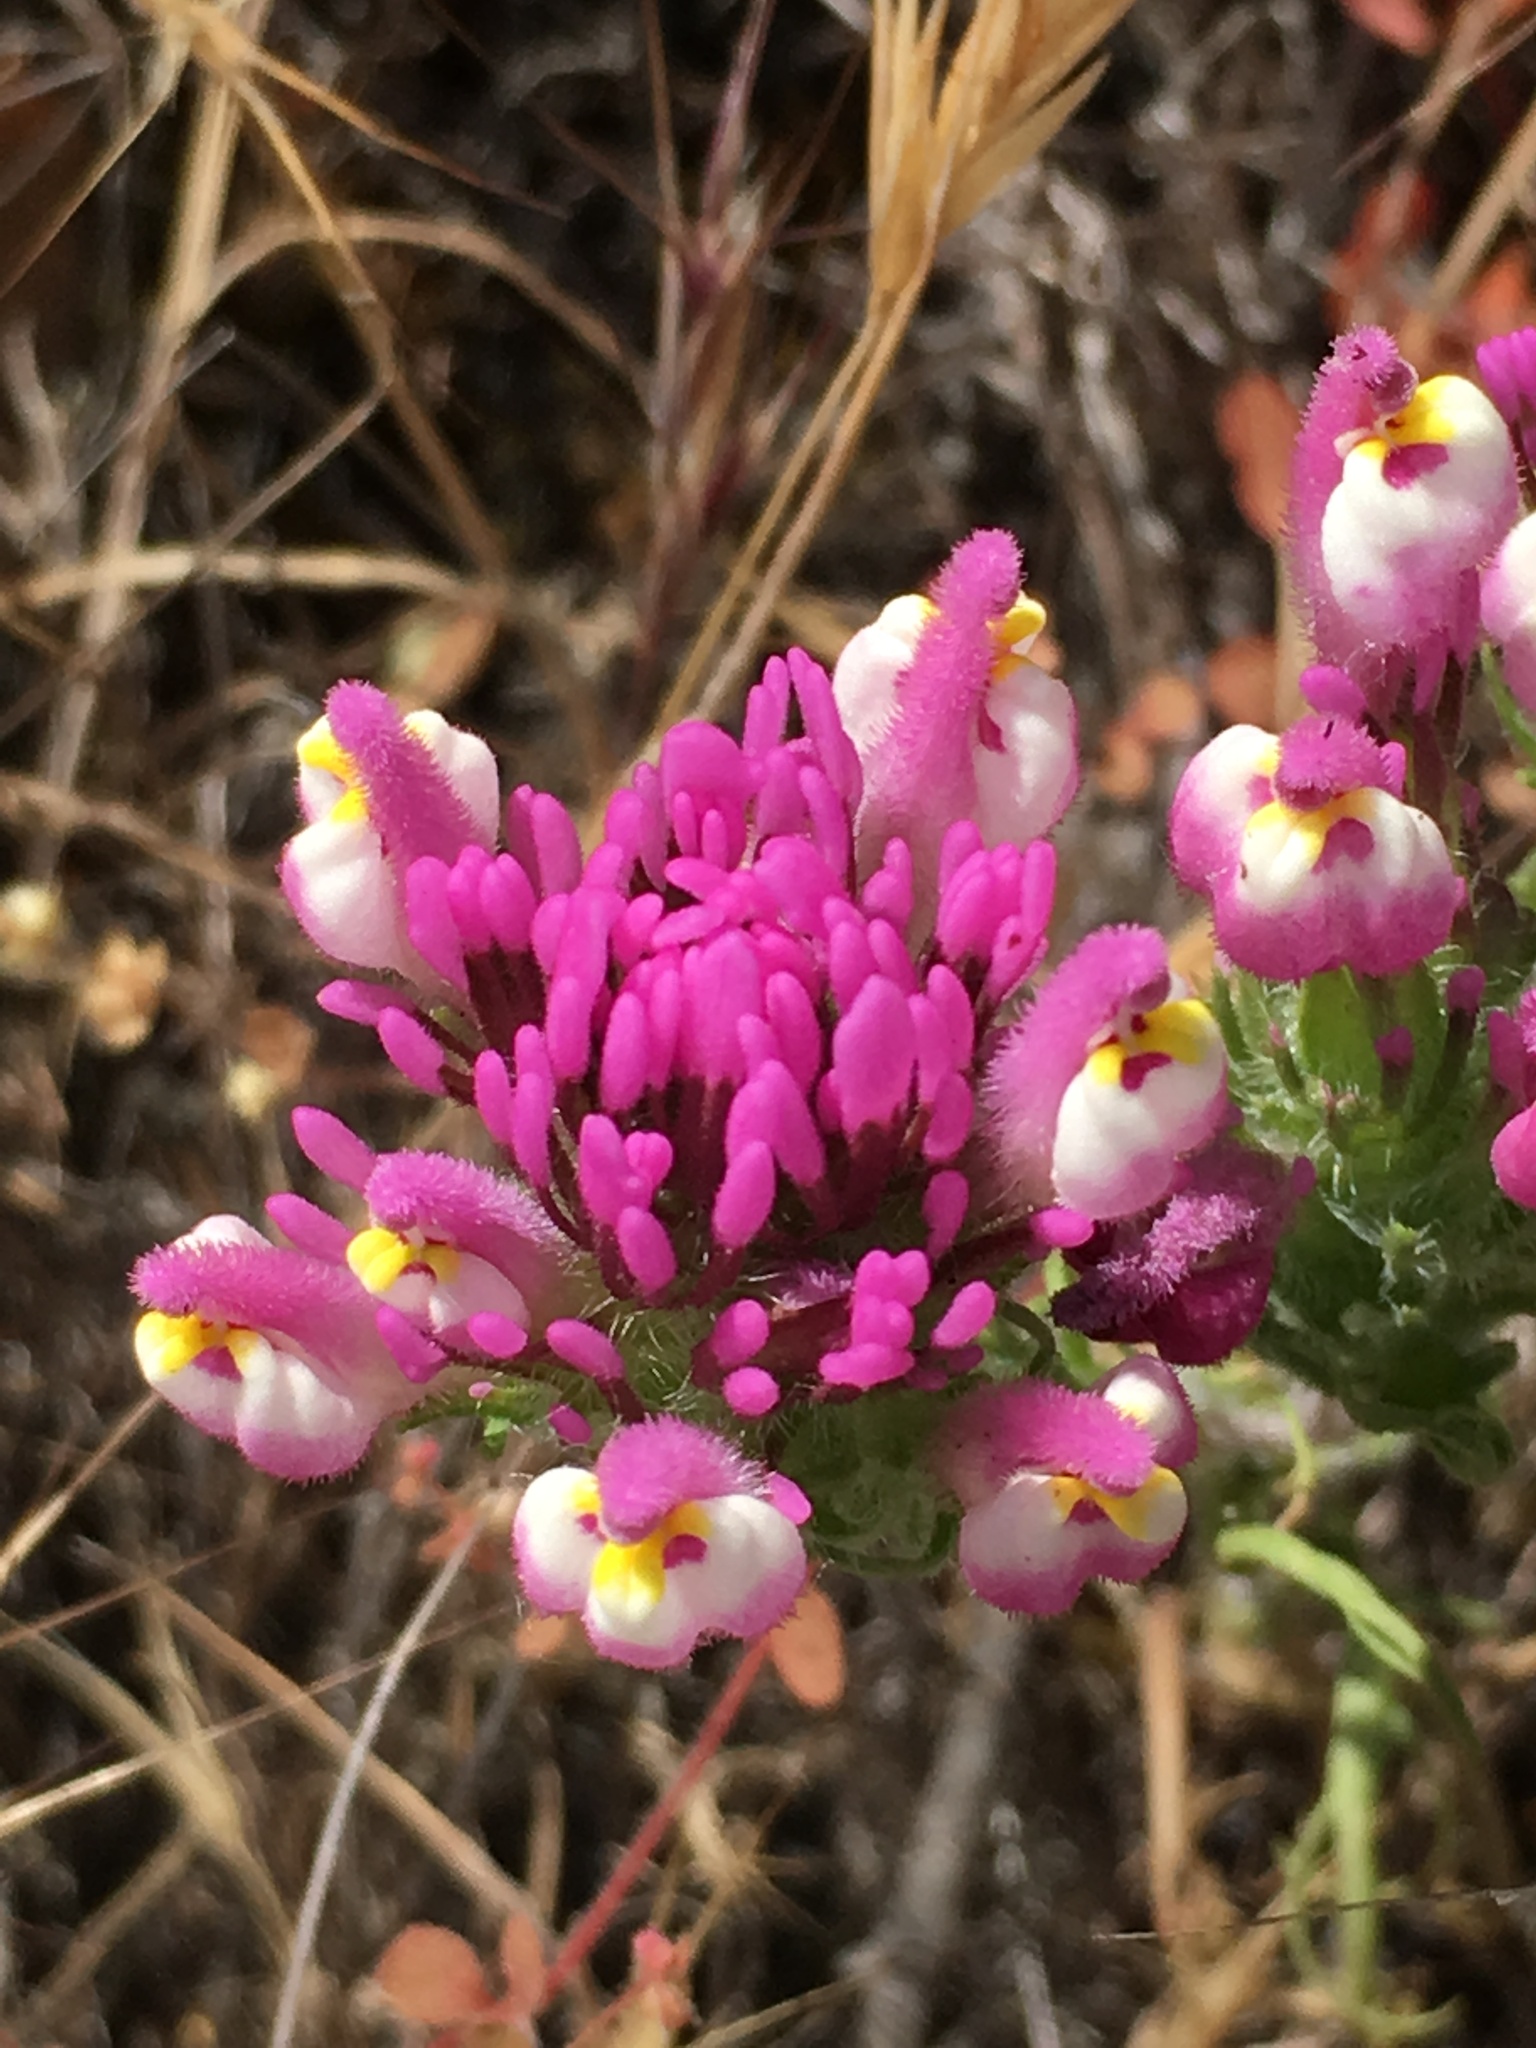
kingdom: Plantae
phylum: Tracheophyta
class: Magnoliopsida
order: Lamiales
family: Orobanchaceae
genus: Castilleja
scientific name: Castilleja exserta
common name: Purple owl-clover
